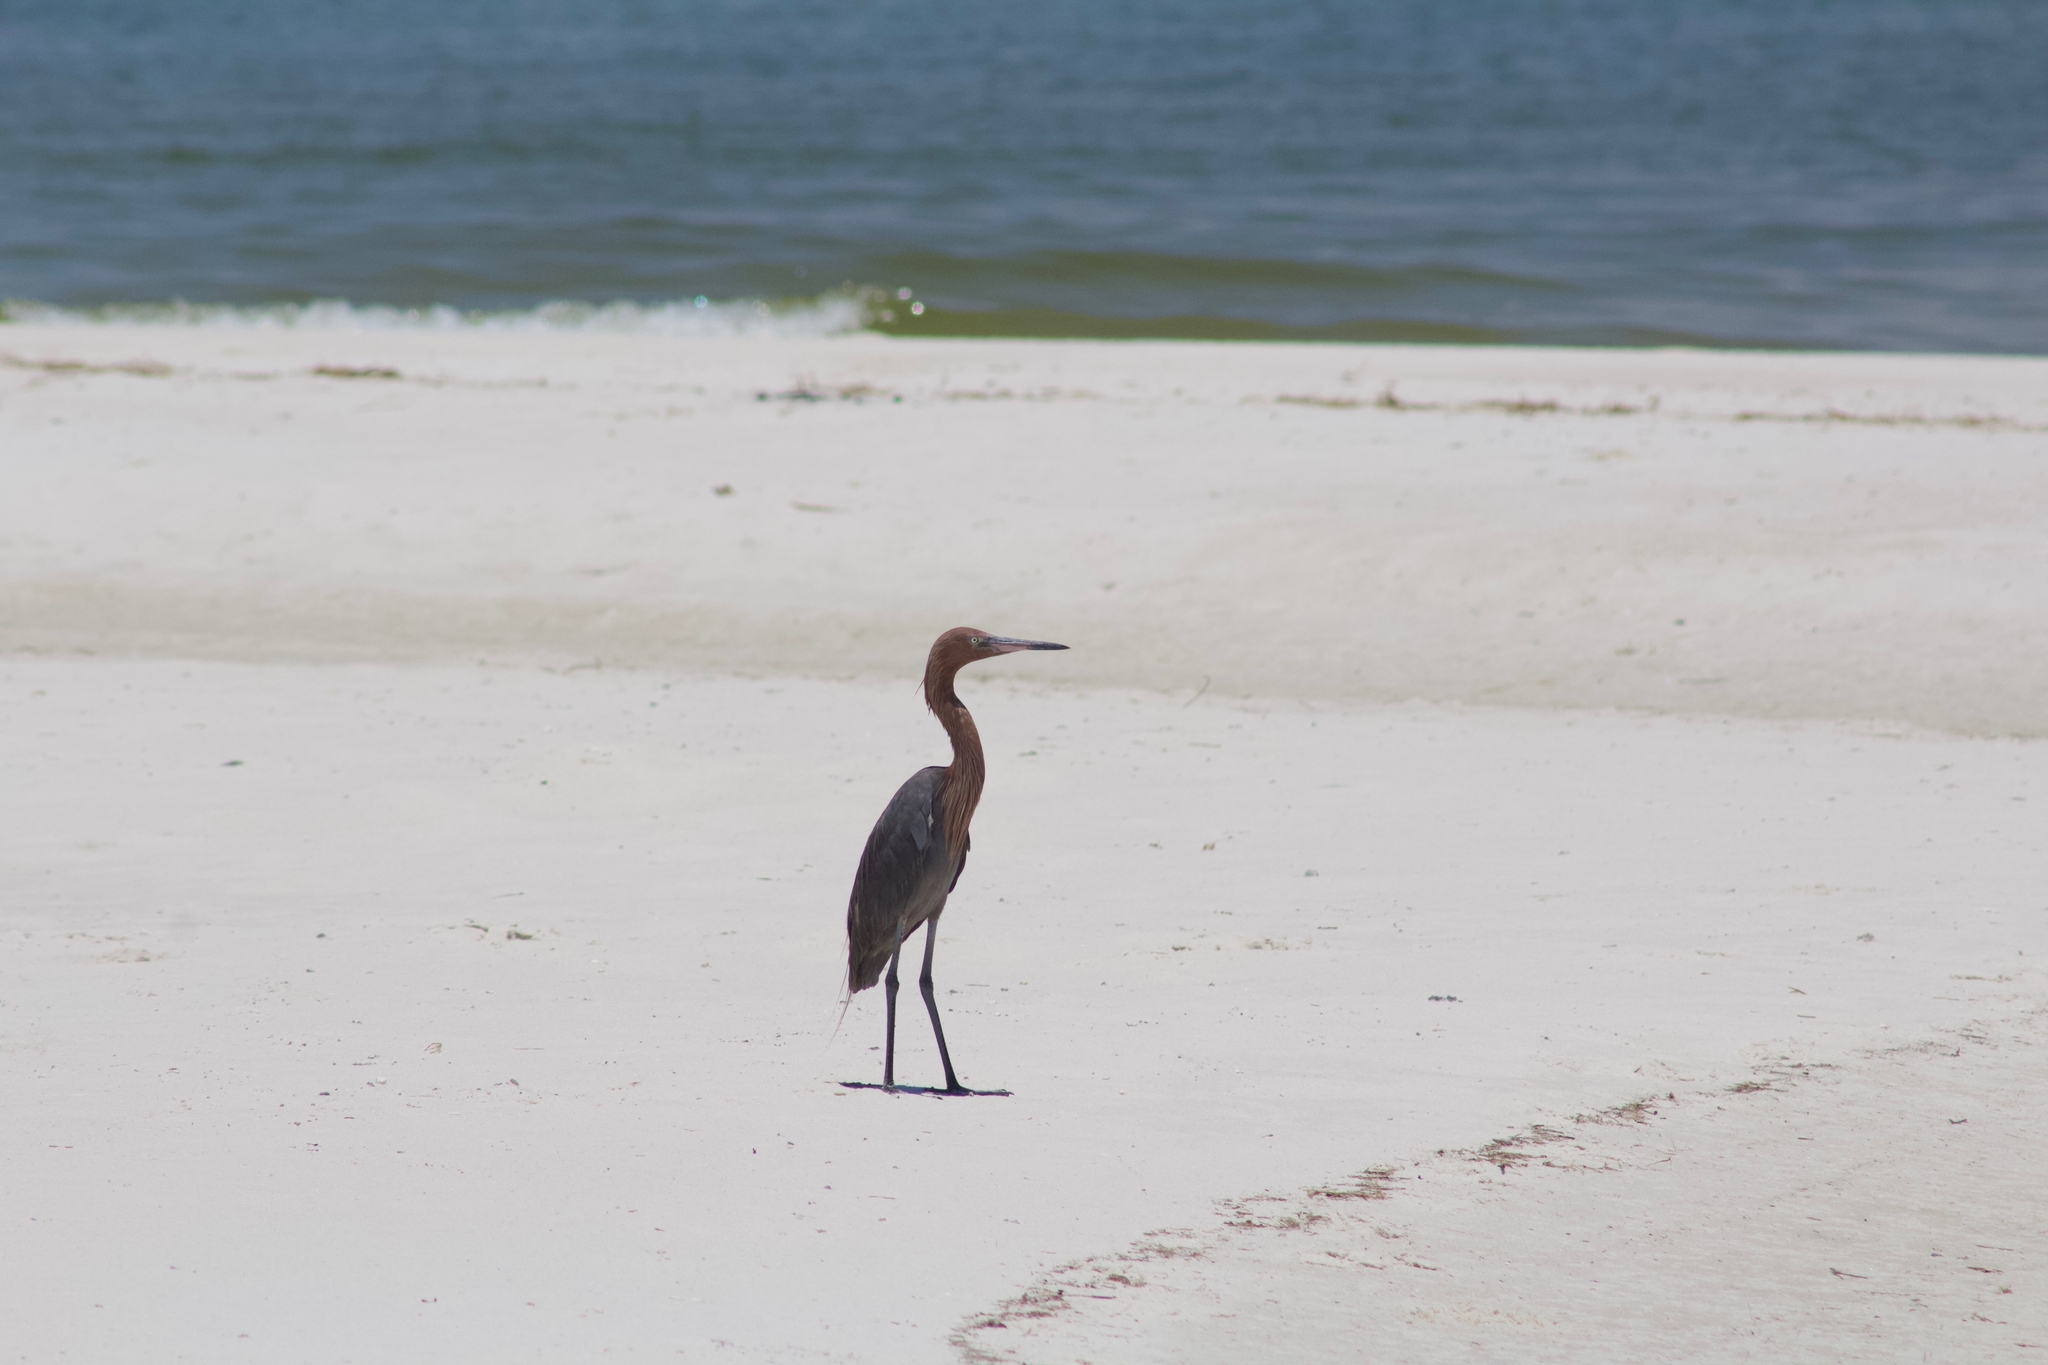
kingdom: Animalia
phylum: Chordata
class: Aves
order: Pelecaniformes
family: Ardeidae
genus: Egretta
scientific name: Egretta rufescens
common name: Reddish egret
